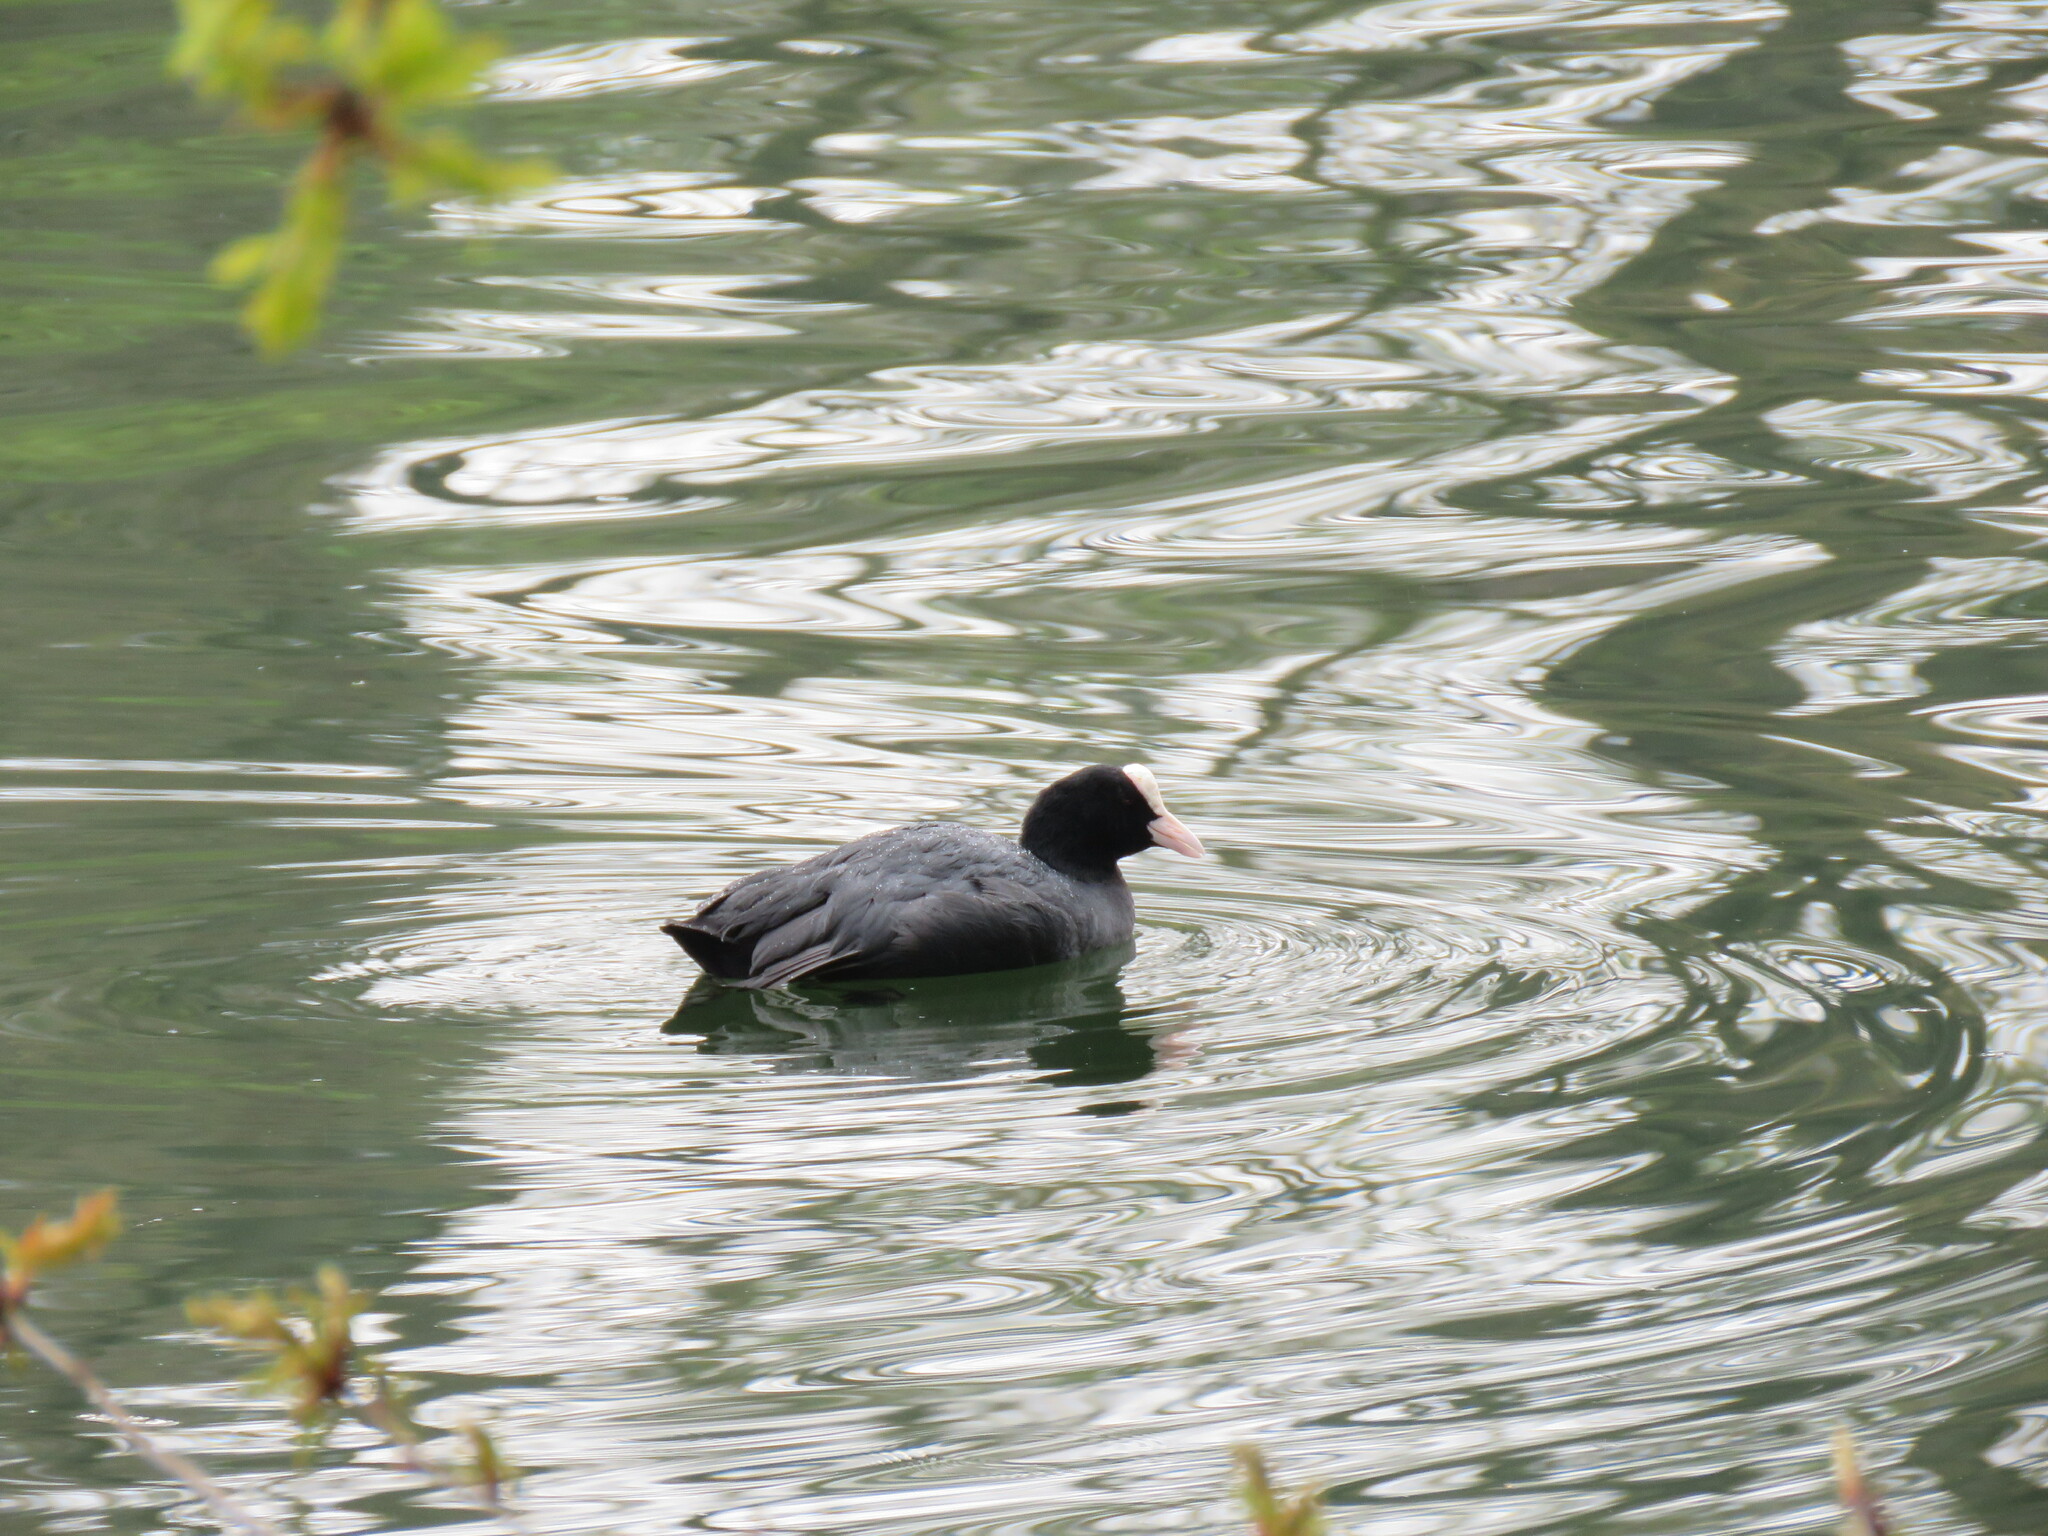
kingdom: Animalia
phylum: Chordata
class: Aves
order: Gruiformes
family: Rallidae
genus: Fulica
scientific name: Fulica atra
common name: Eurasian coot
